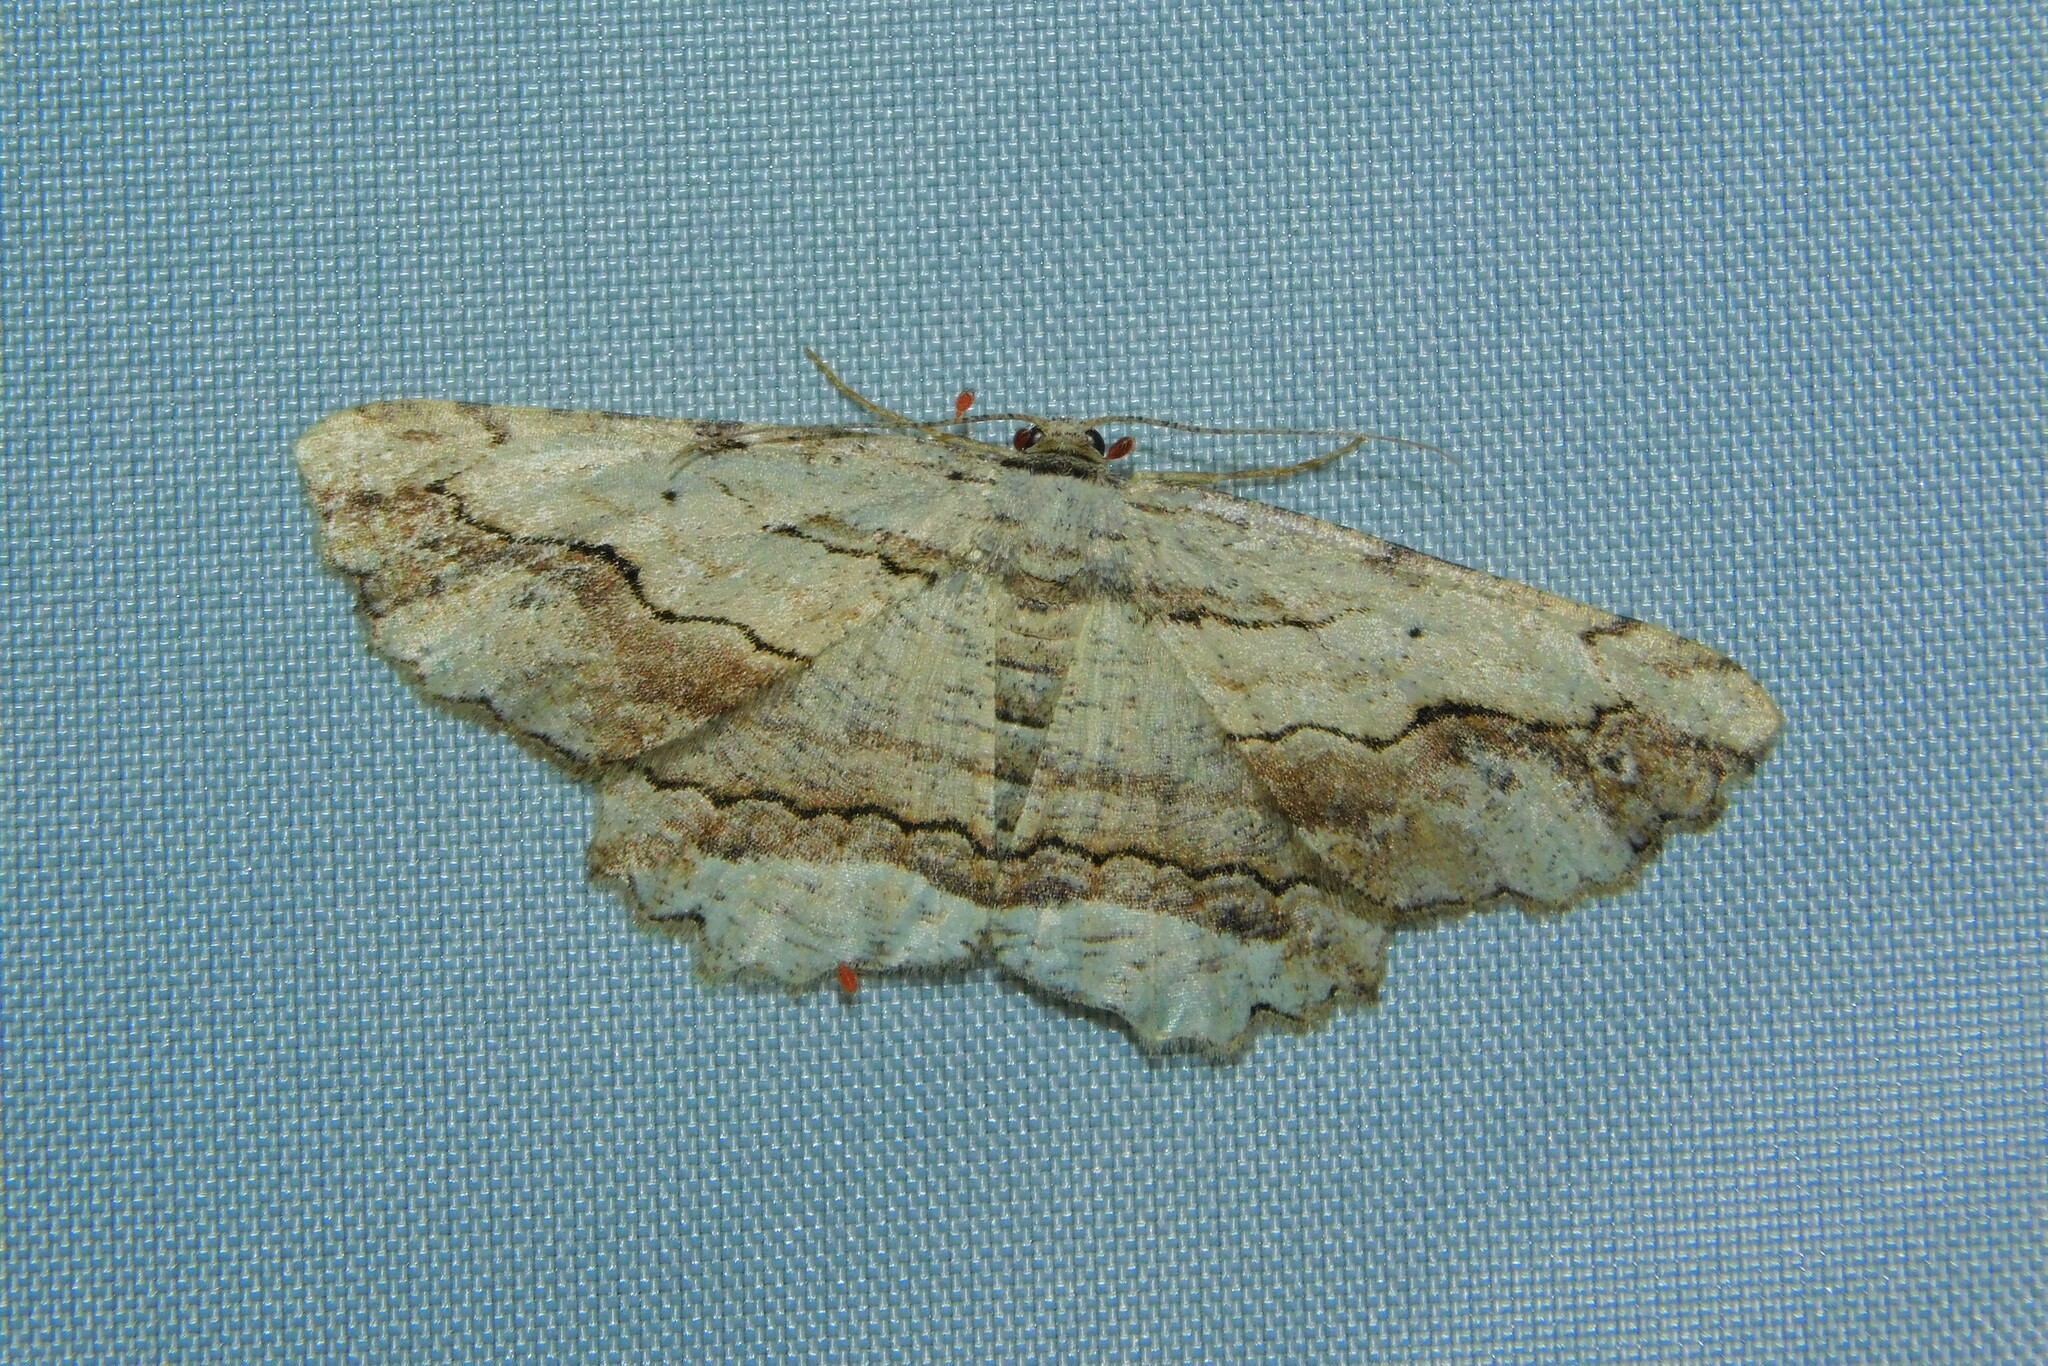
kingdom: Animalia
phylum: Arthropoda
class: Insecta
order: Lepidoptera
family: Geometridae
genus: Menophra
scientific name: Menophra abruptaria
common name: Waved umber
